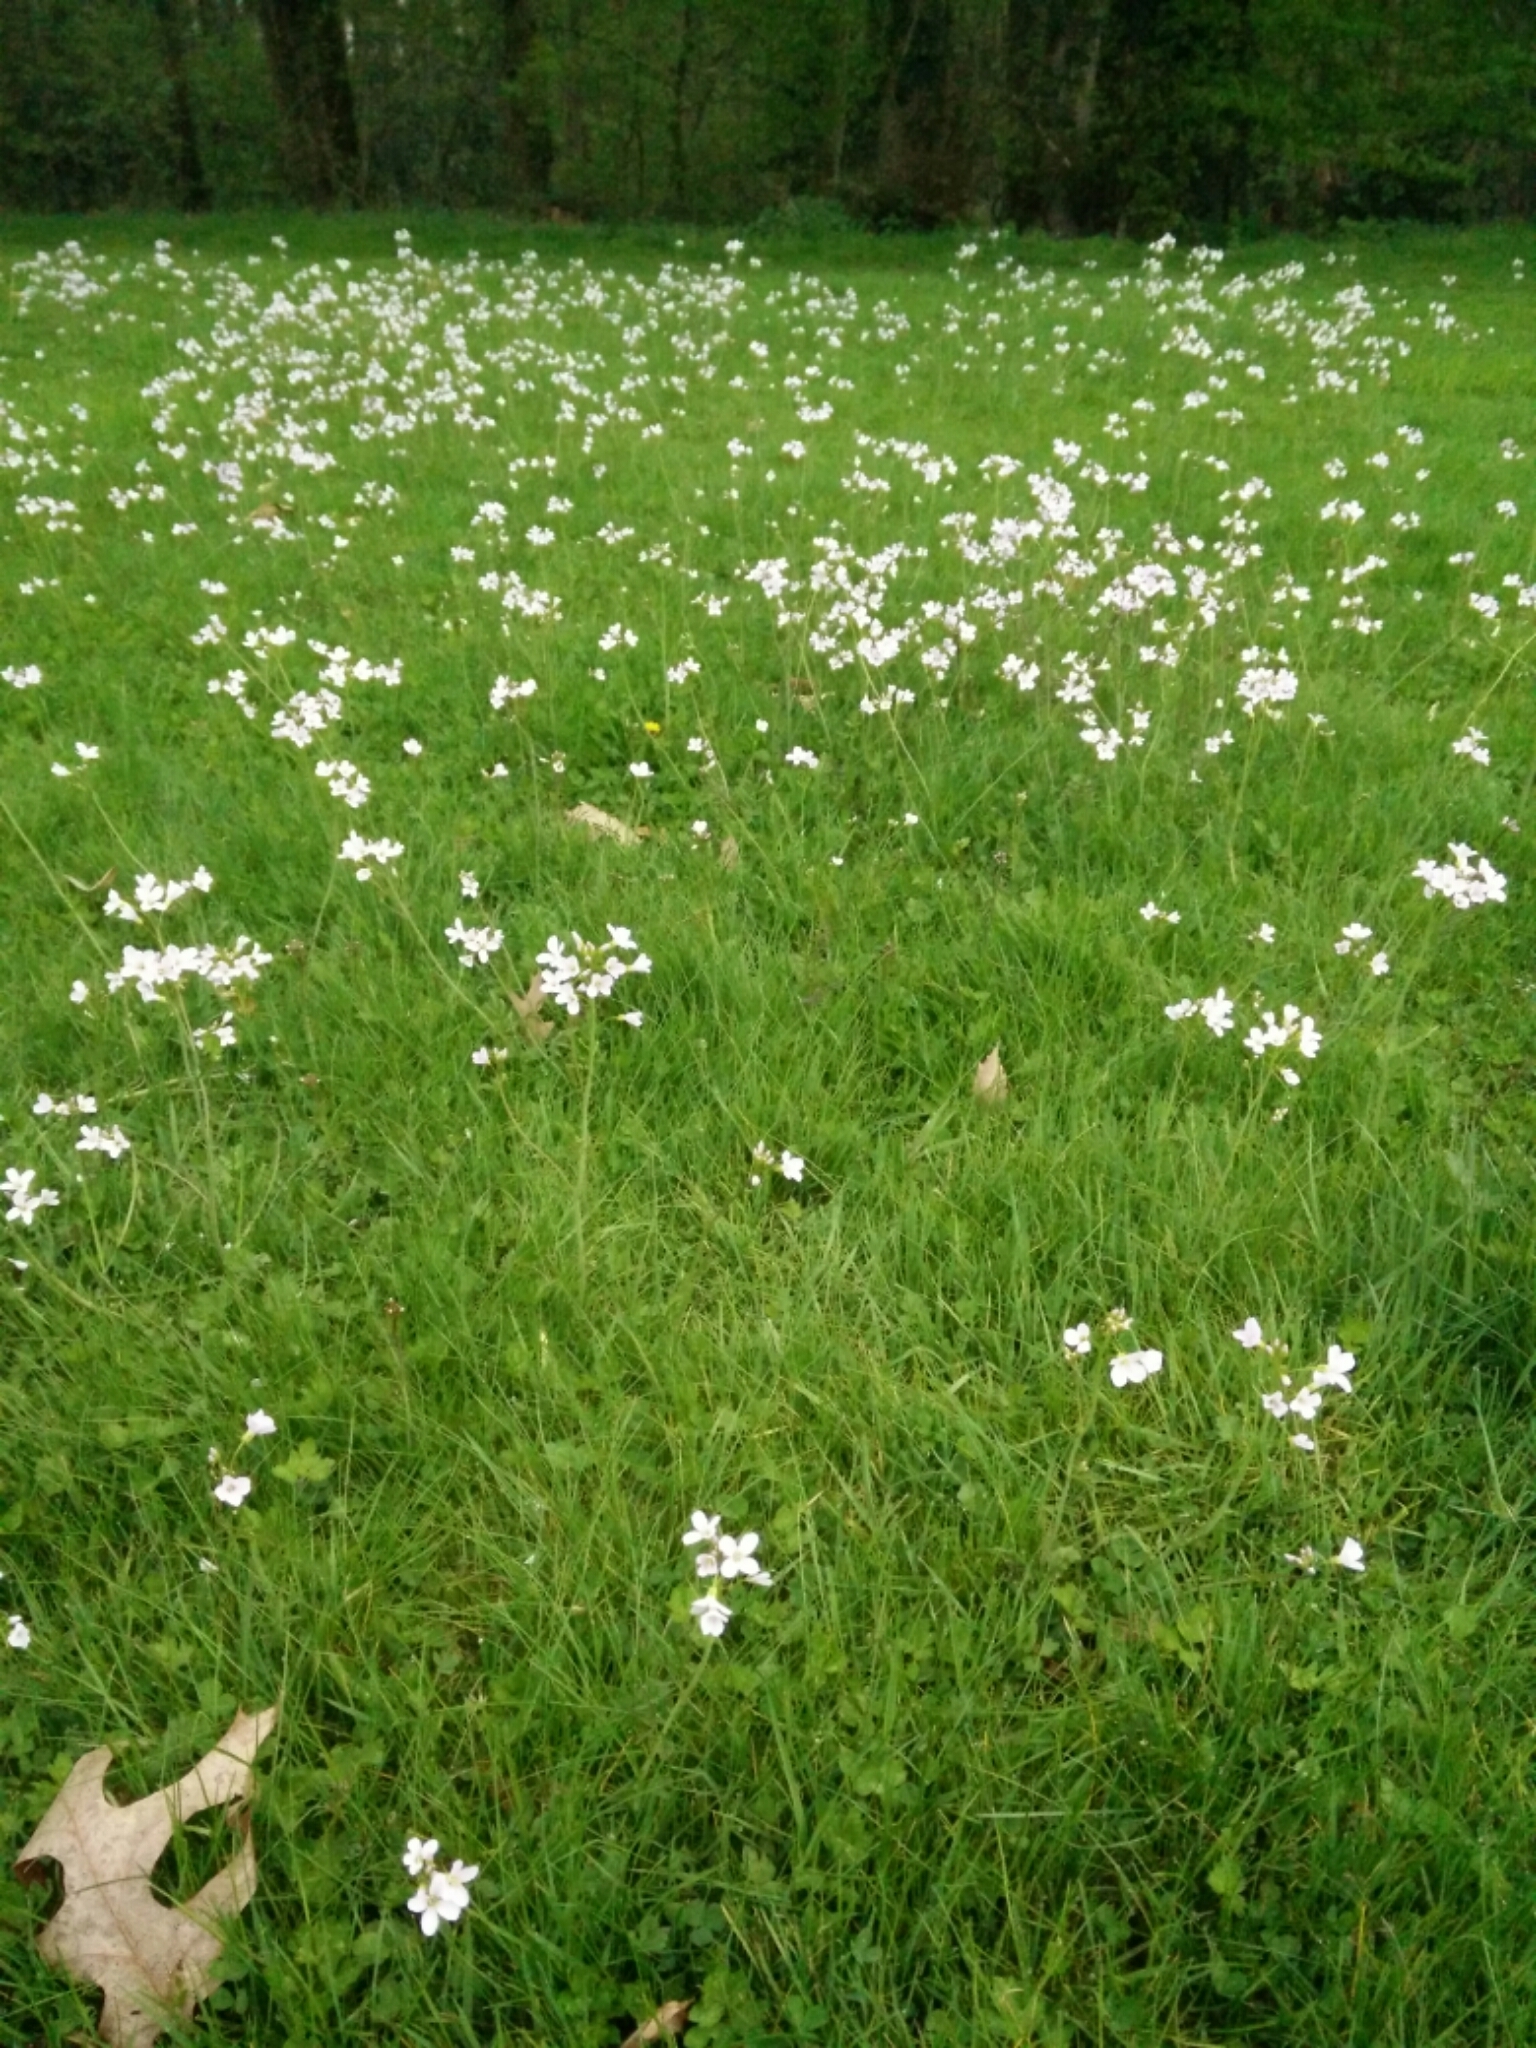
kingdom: Plantae
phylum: Tracheophyta
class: Magnoliopsida
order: Brassicales
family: Brassicaceae
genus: Cardamine
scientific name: Cardamine pratensis
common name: Cuckoo flower
